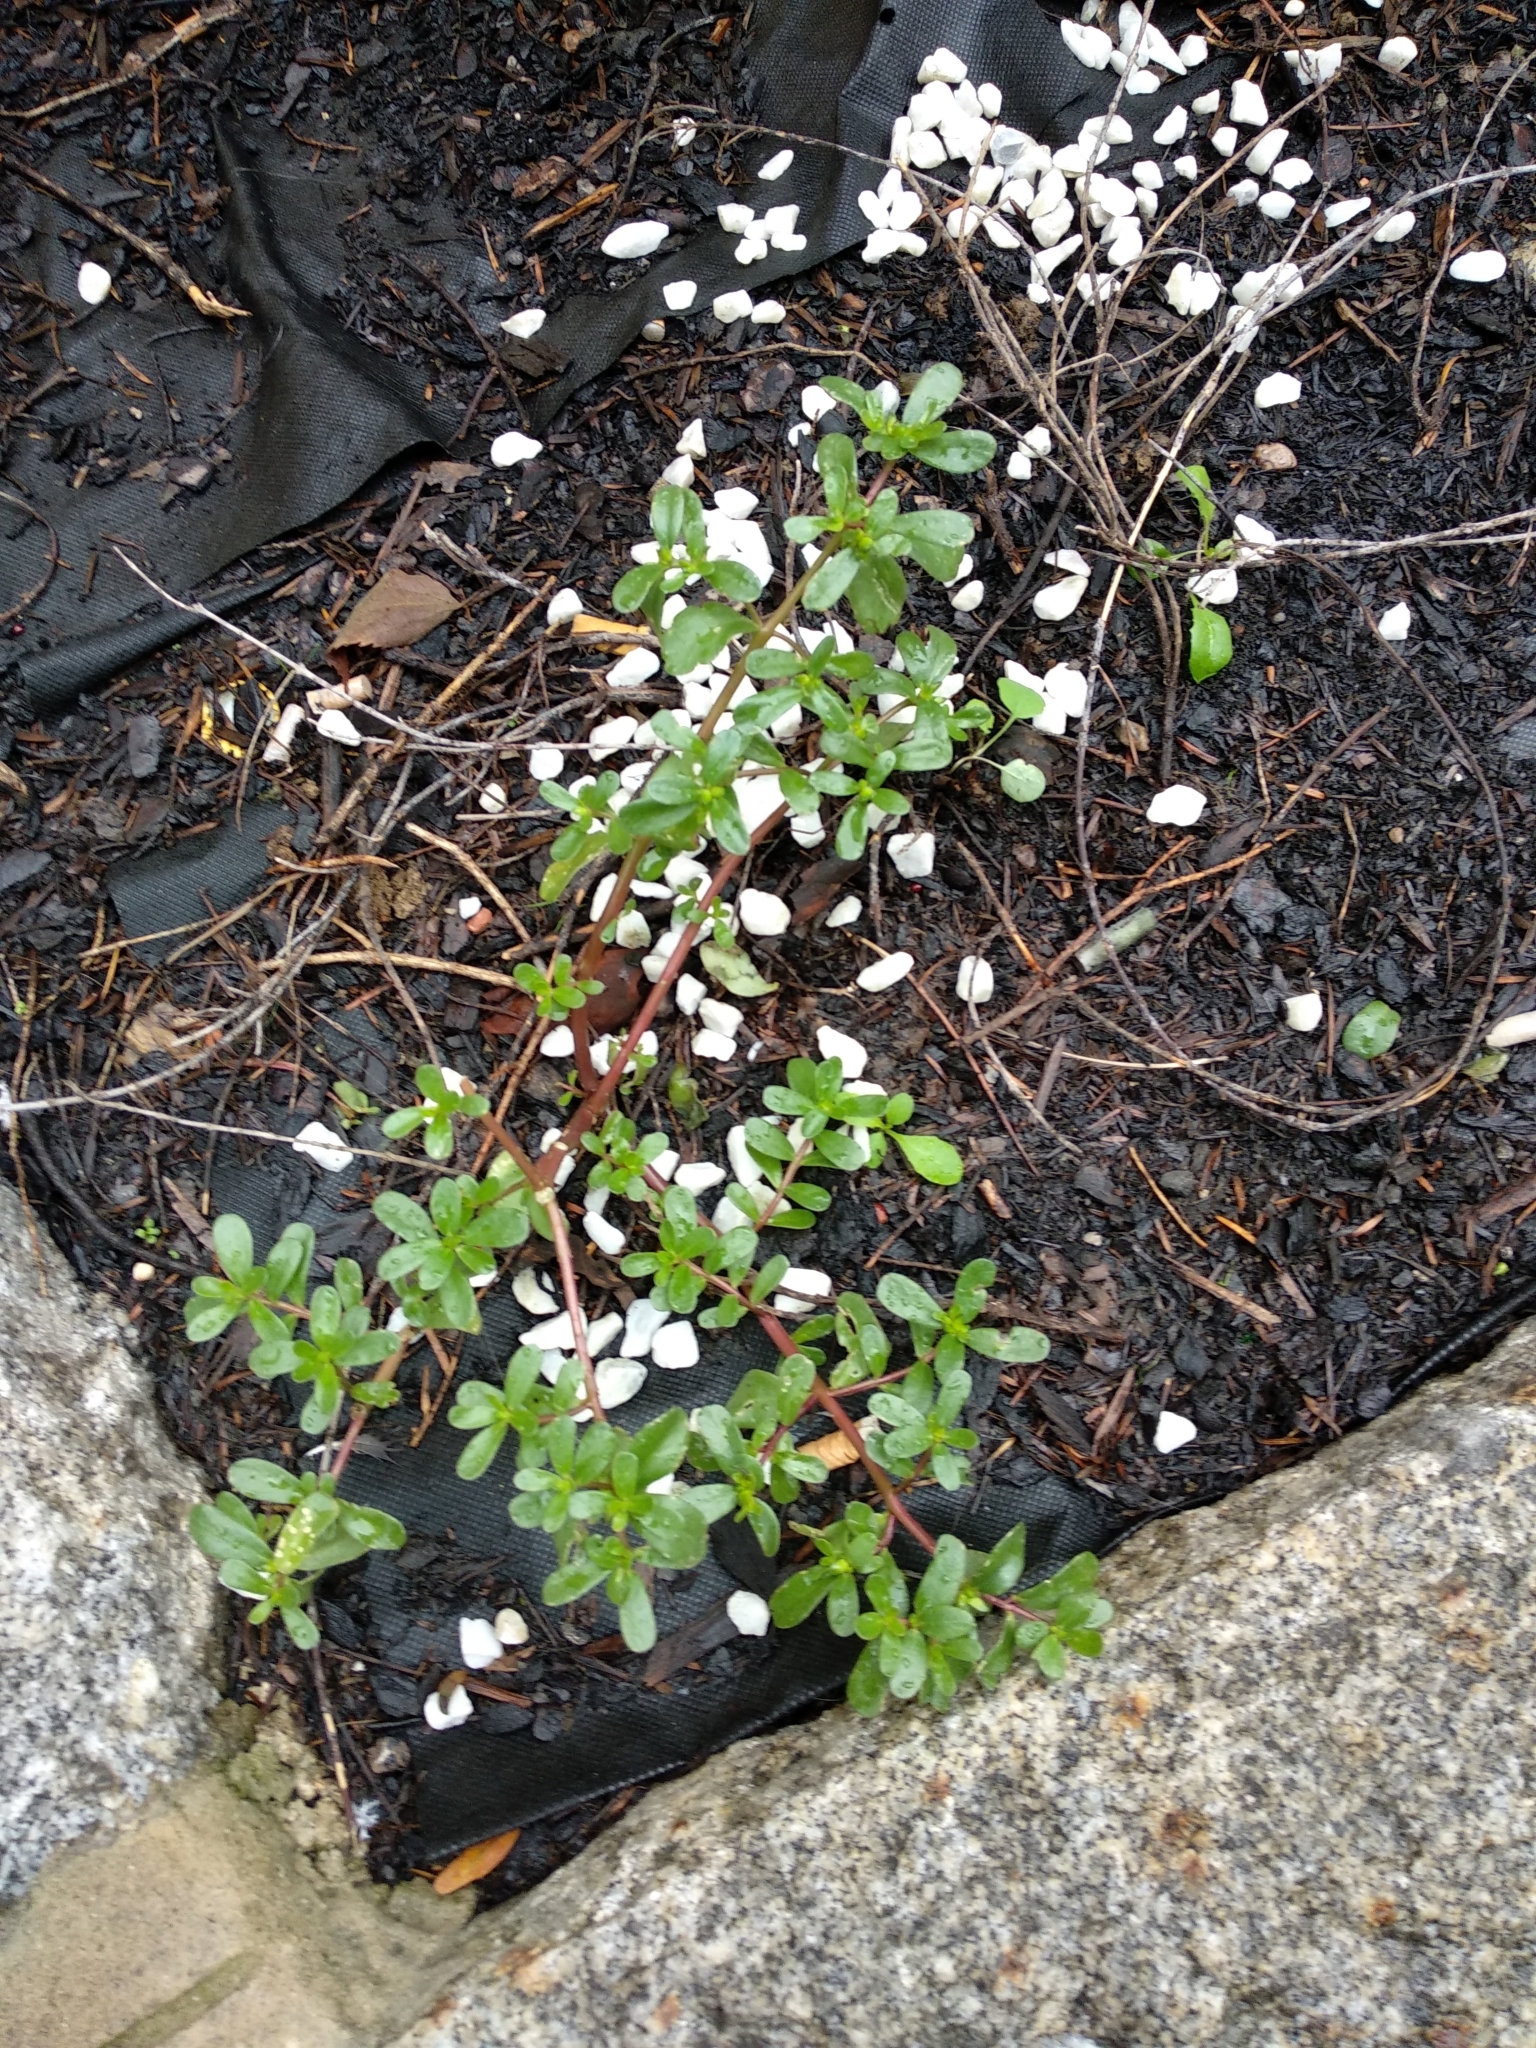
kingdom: Plantae
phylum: Tracheophyta
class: Magnoliopsida
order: Caryophyllales
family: Portulacaceae
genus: Portulaca
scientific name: Portulaca oleracea
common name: Common purslane
